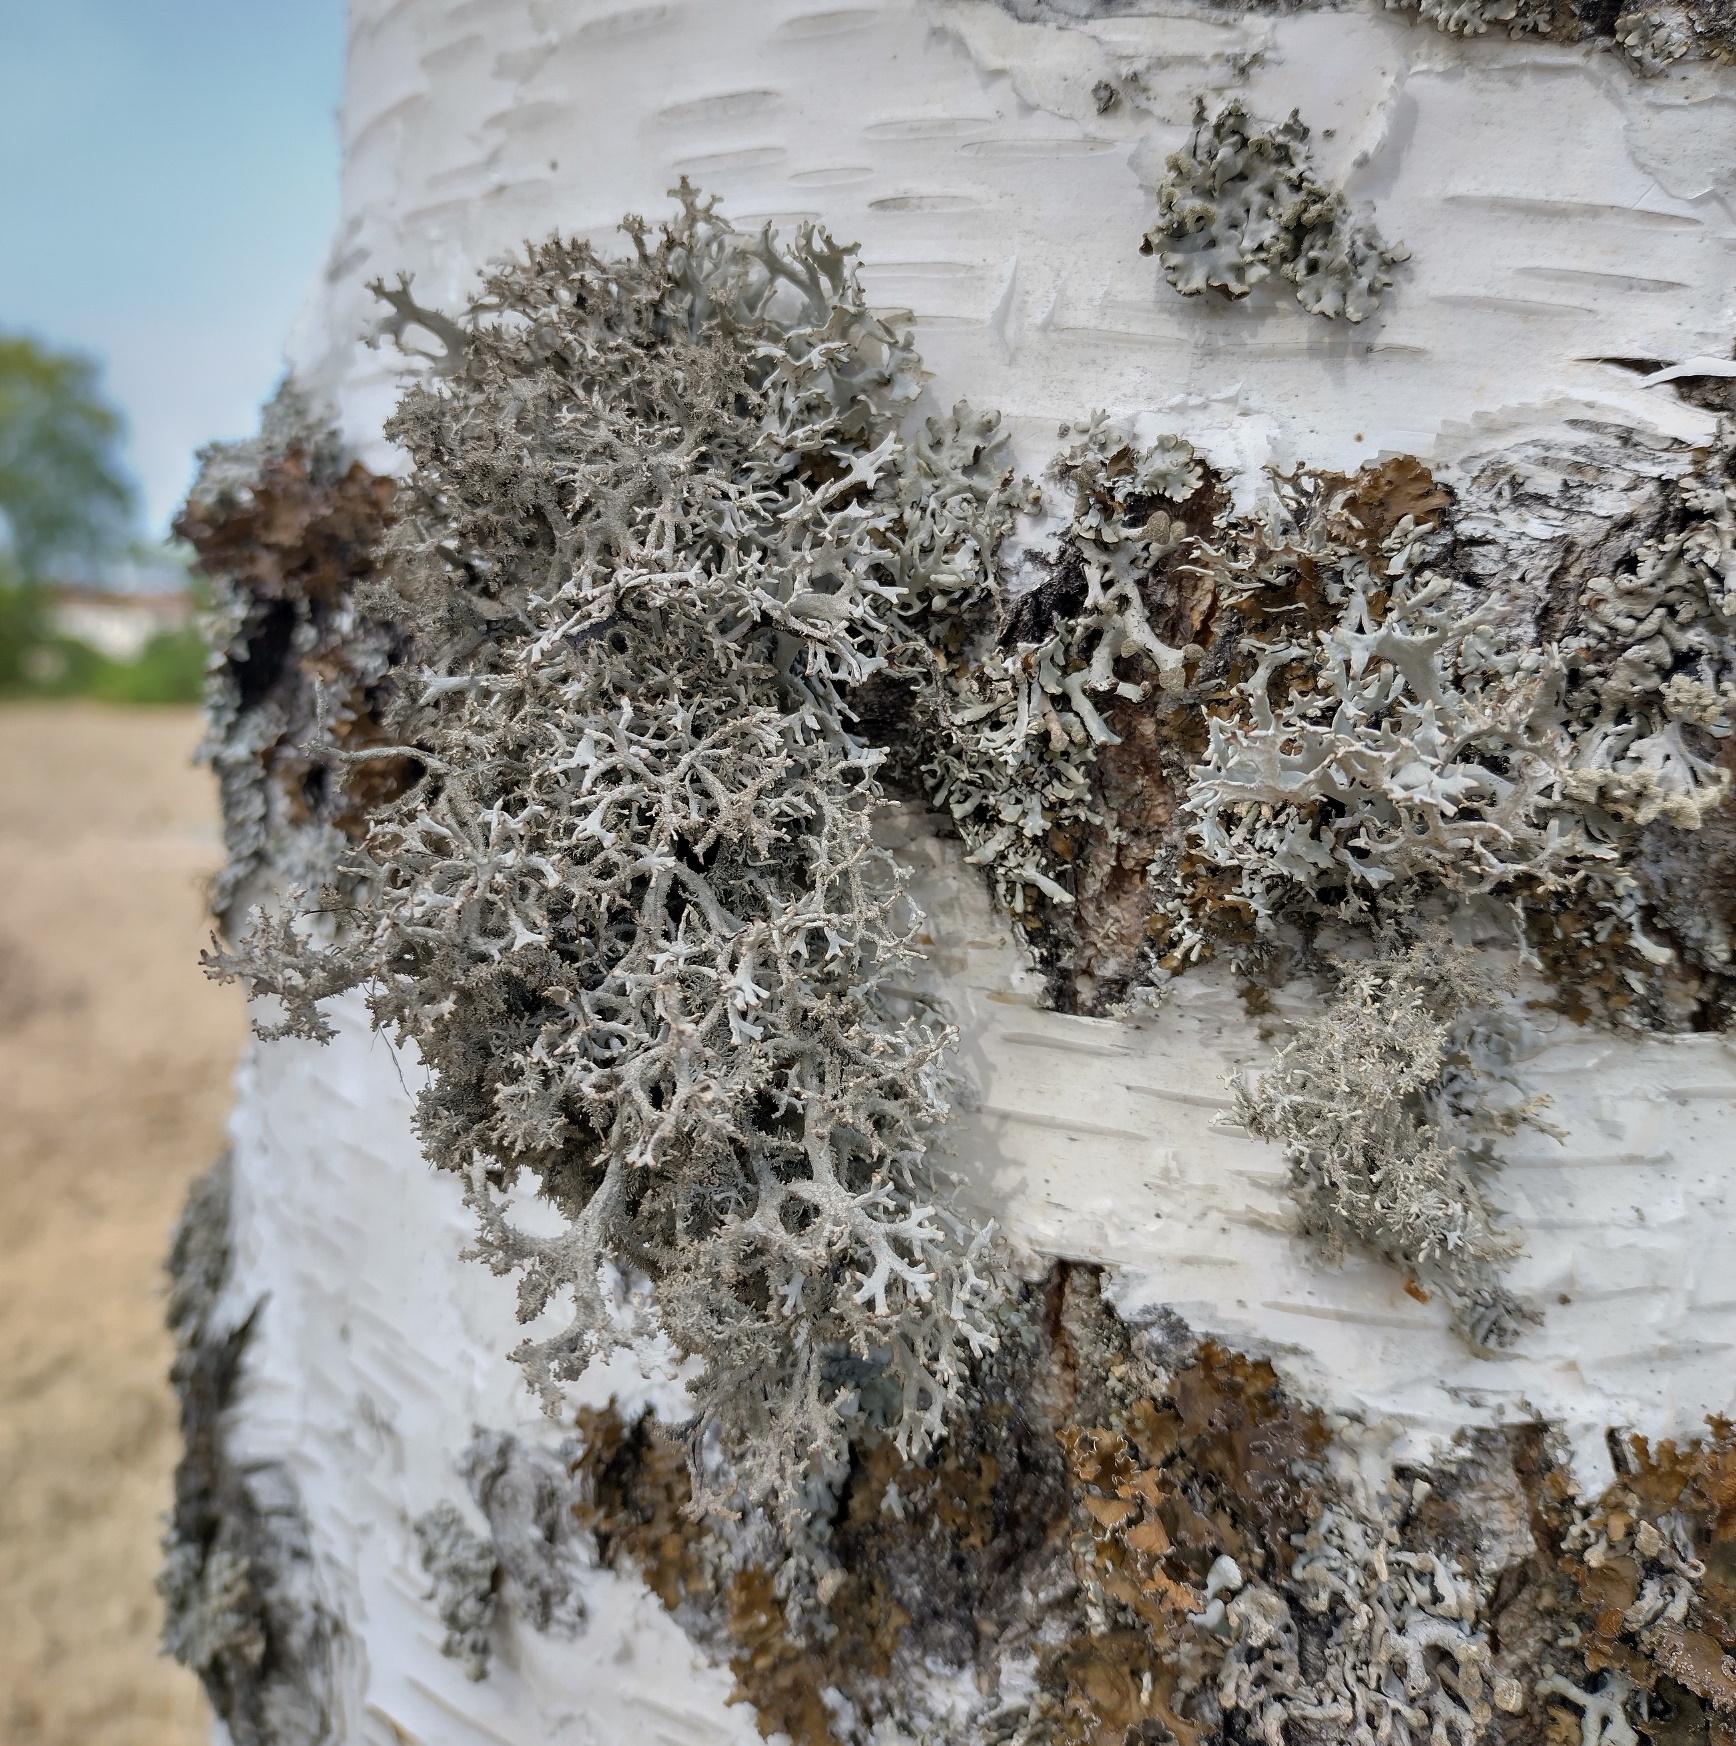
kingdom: Fungi
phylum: Ascomycota
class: Lecanoromycetes
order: Lecanorales
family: Parmeliaceae
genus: Pseudevernia
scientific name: Pseudevernia furfuracea
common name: Tree moss
